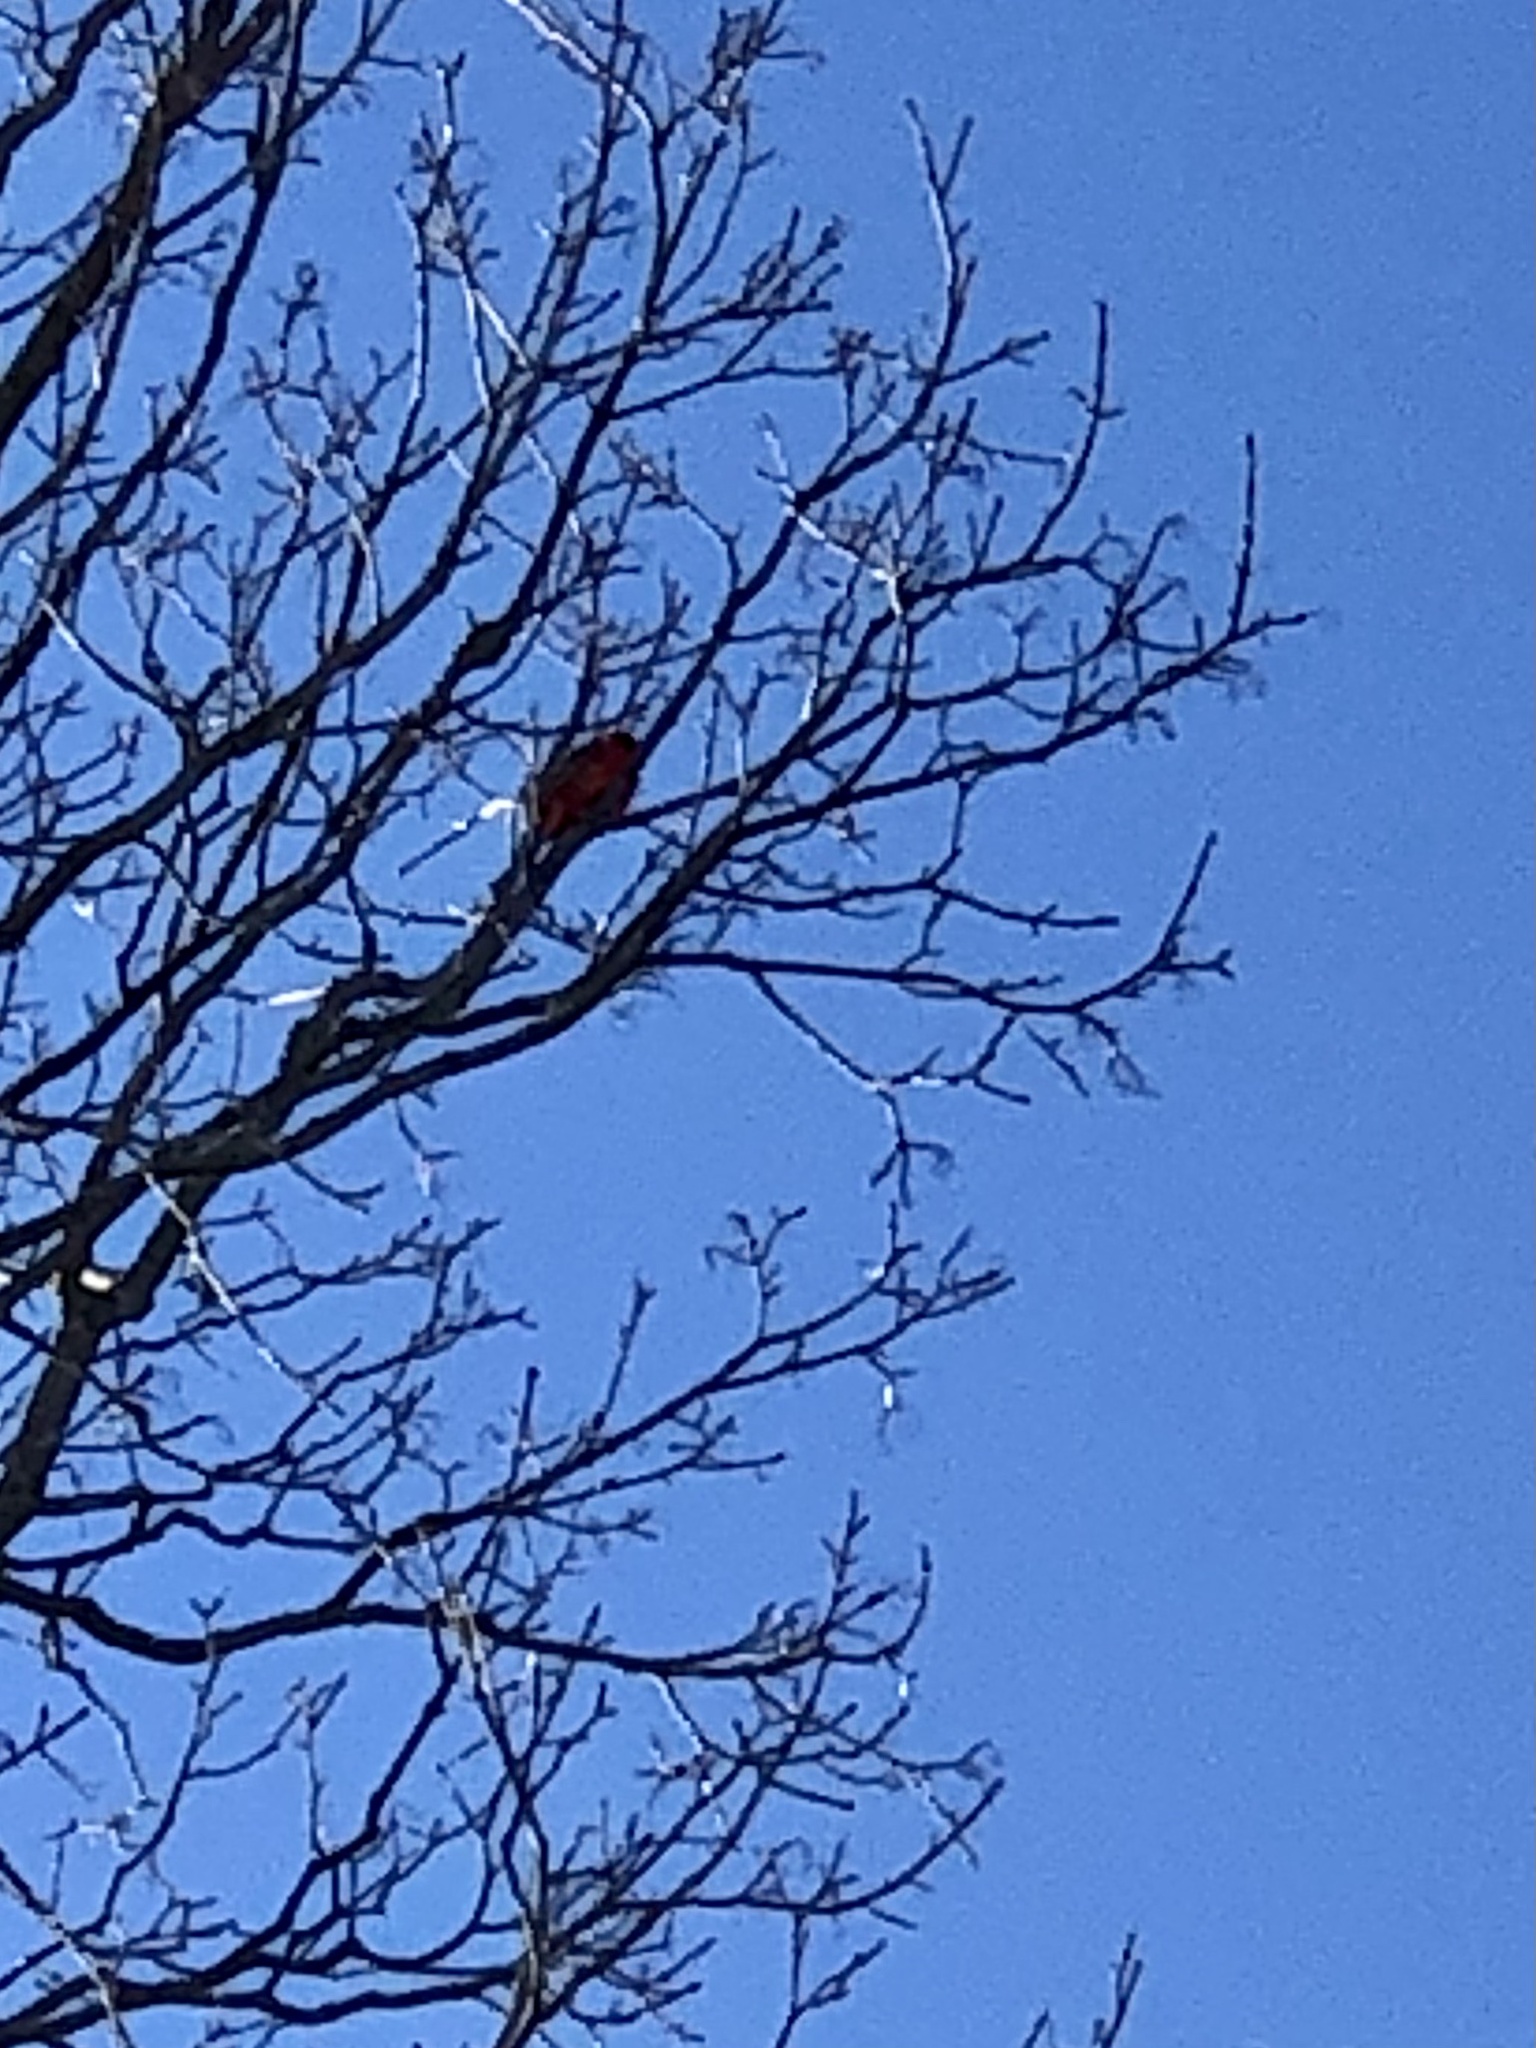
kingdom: Animalia
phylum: Chordata
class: Aves
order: Passeriformes
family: Cardinalidae
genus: Cardinalis
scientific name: Cardinalis cardinalis
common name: Northern cardinal
